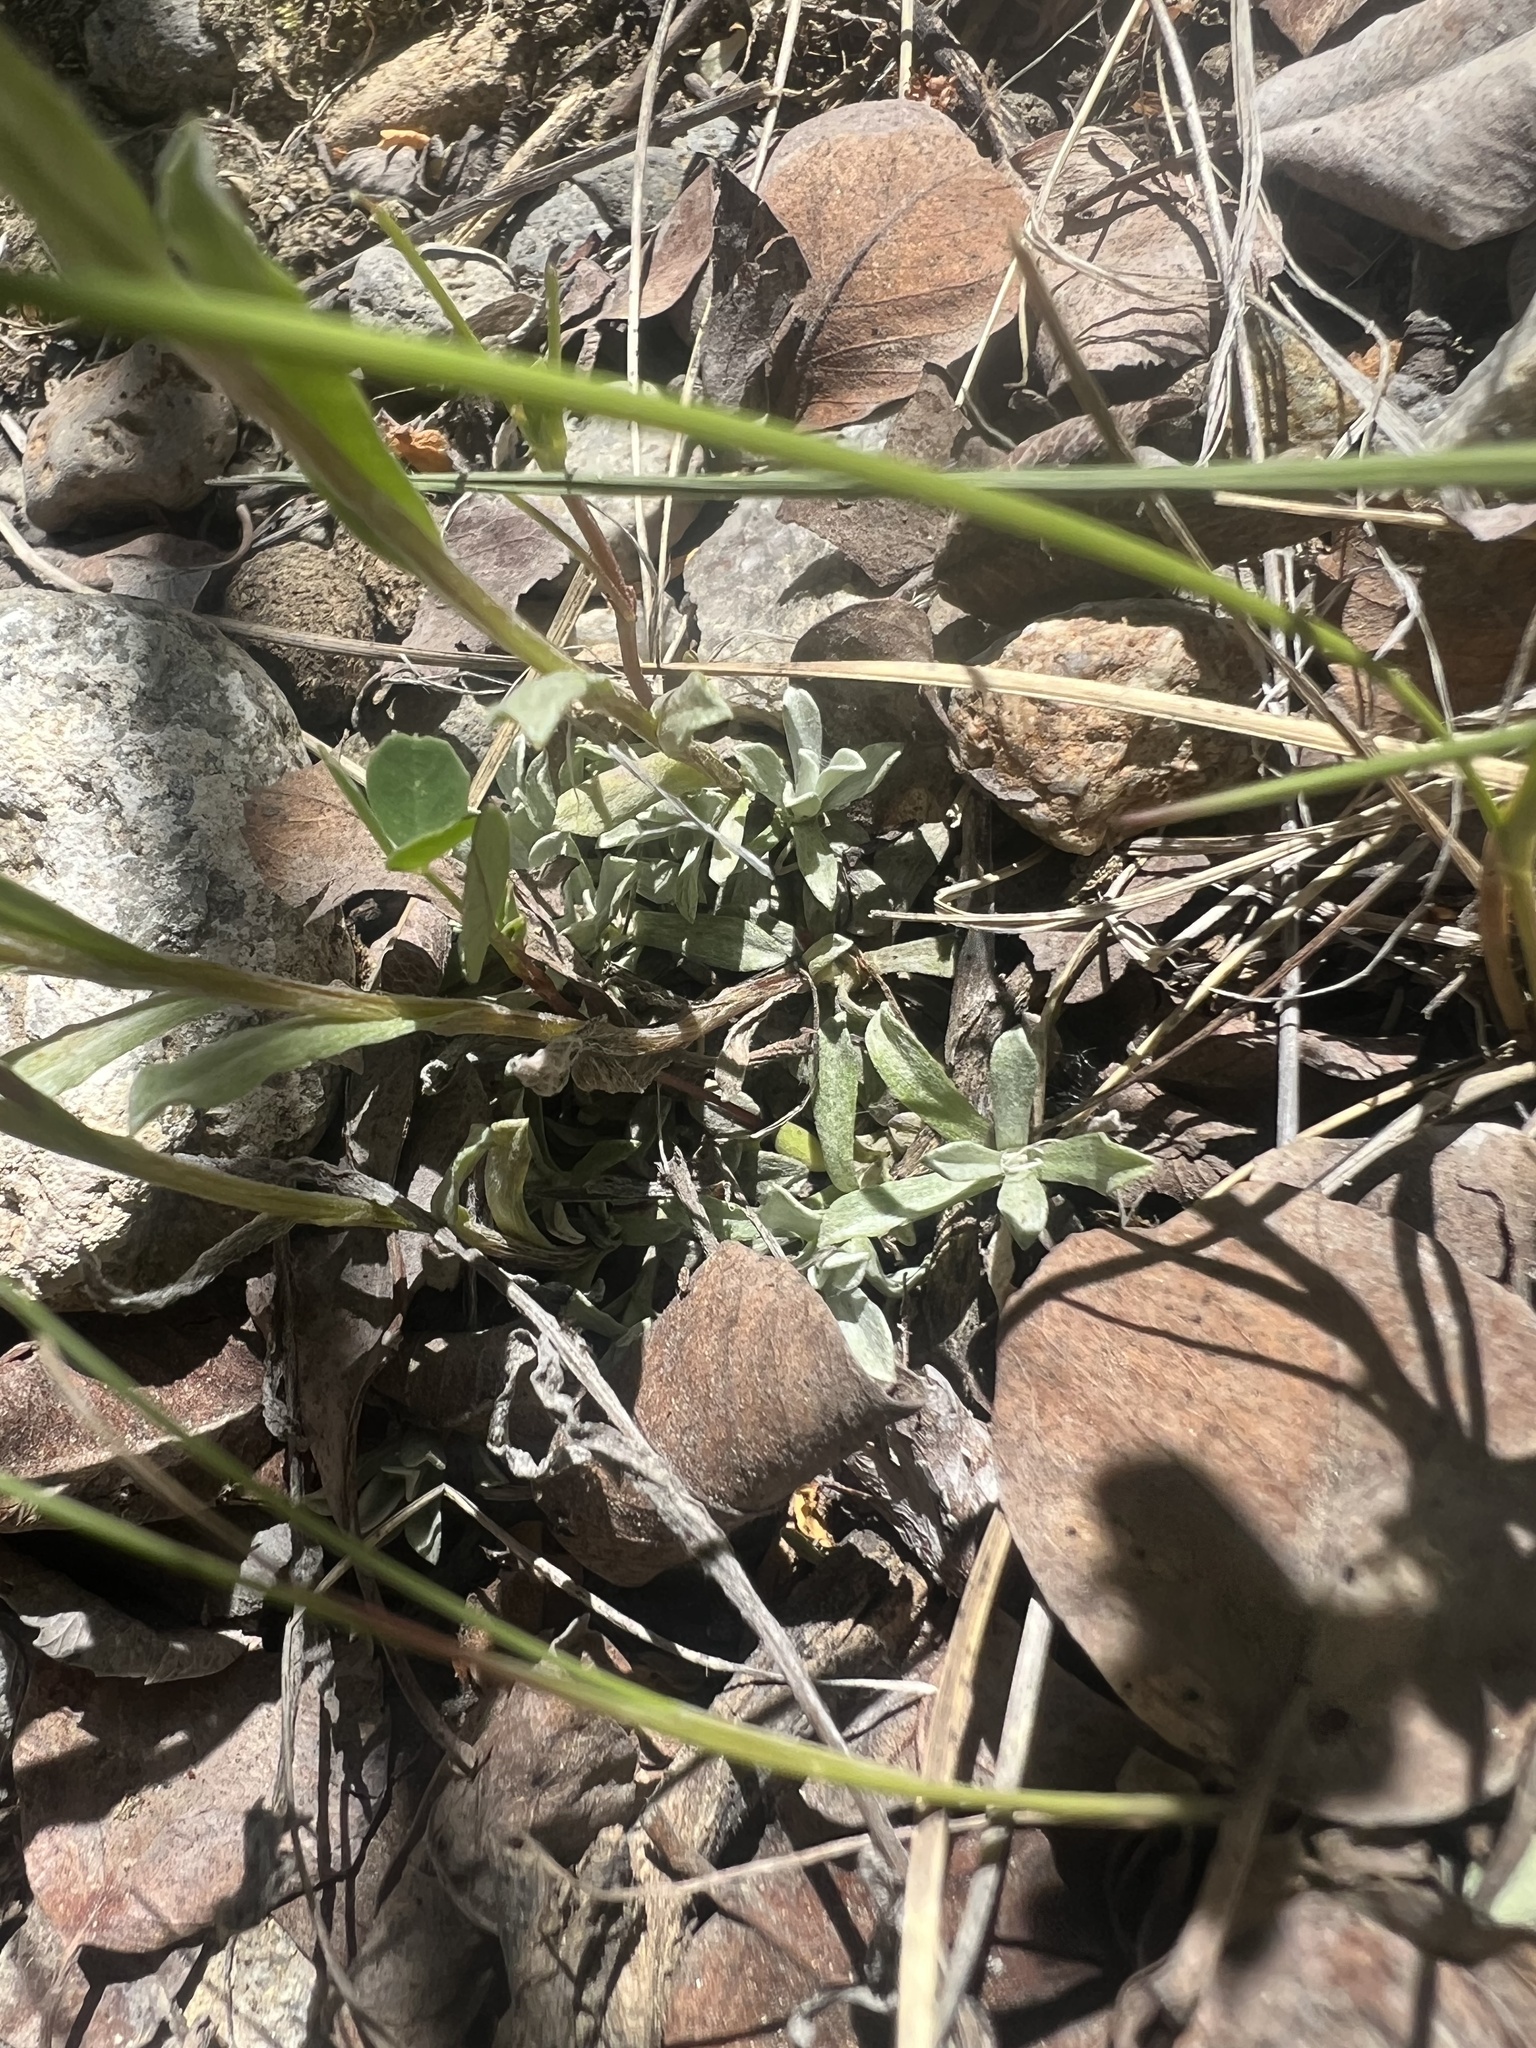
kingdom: Plantae
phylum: Tracheophyta
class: Magnoliopsida
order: Asterales
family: Asteraceae
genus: Antennaria
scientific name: Antennaria rosea
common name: Rosy pussytoes
